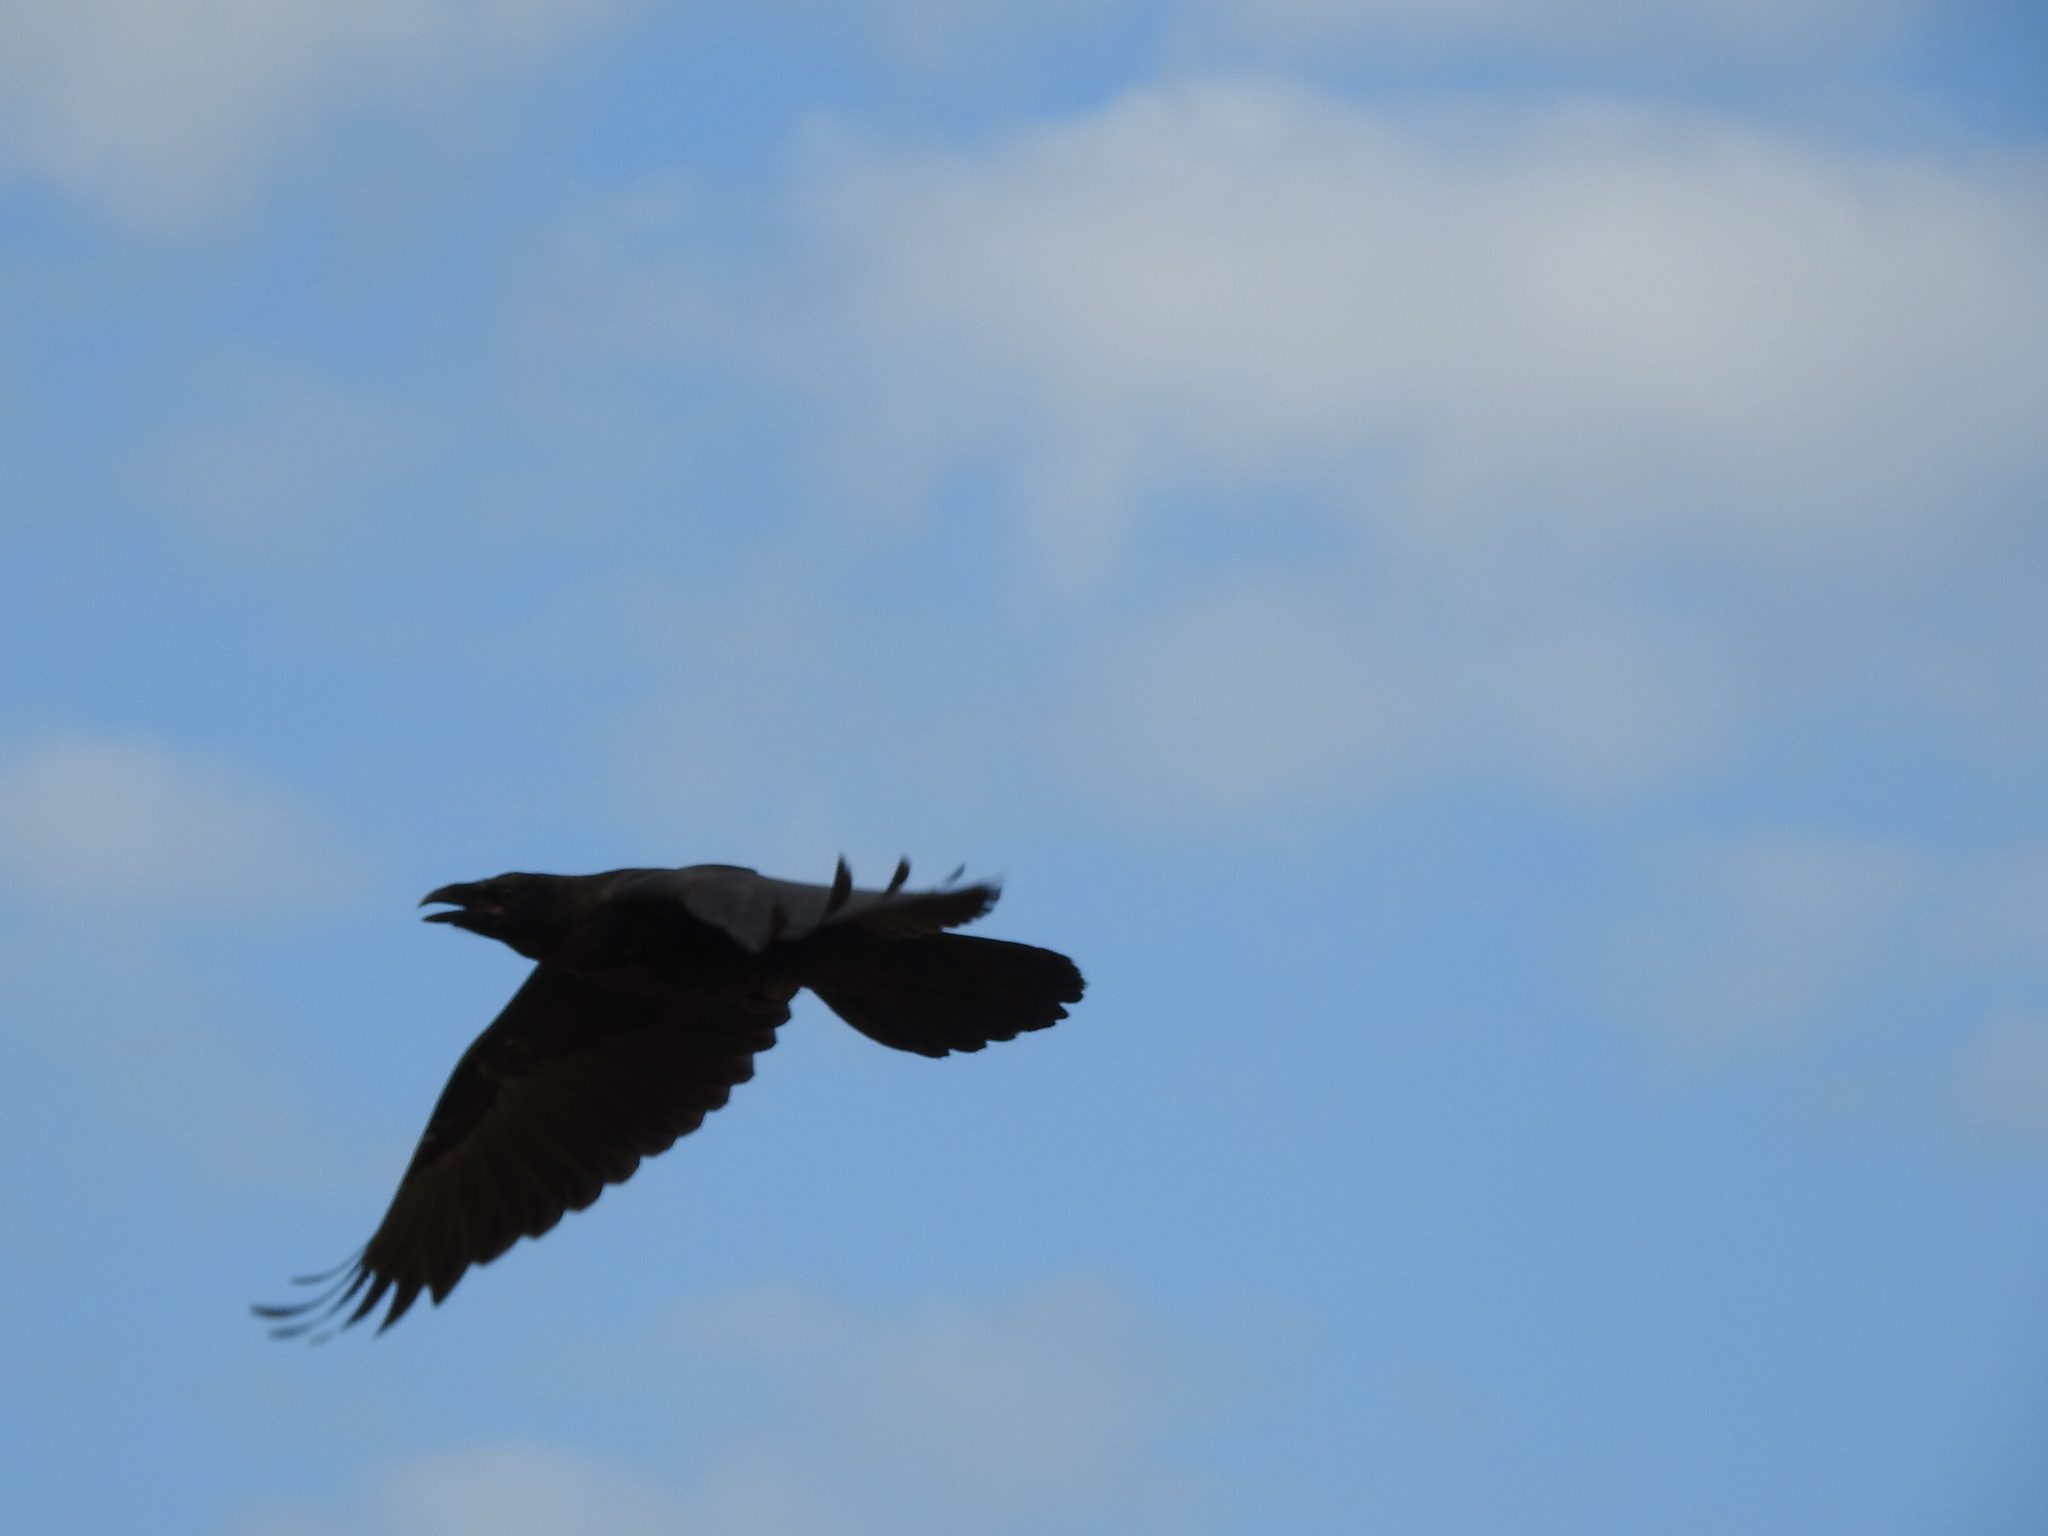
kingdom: Animalia
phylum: Chordata
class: Aves
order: Passeriformes
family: Corvidae
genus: Corvus
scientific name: Corvus corax
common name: Common raven
